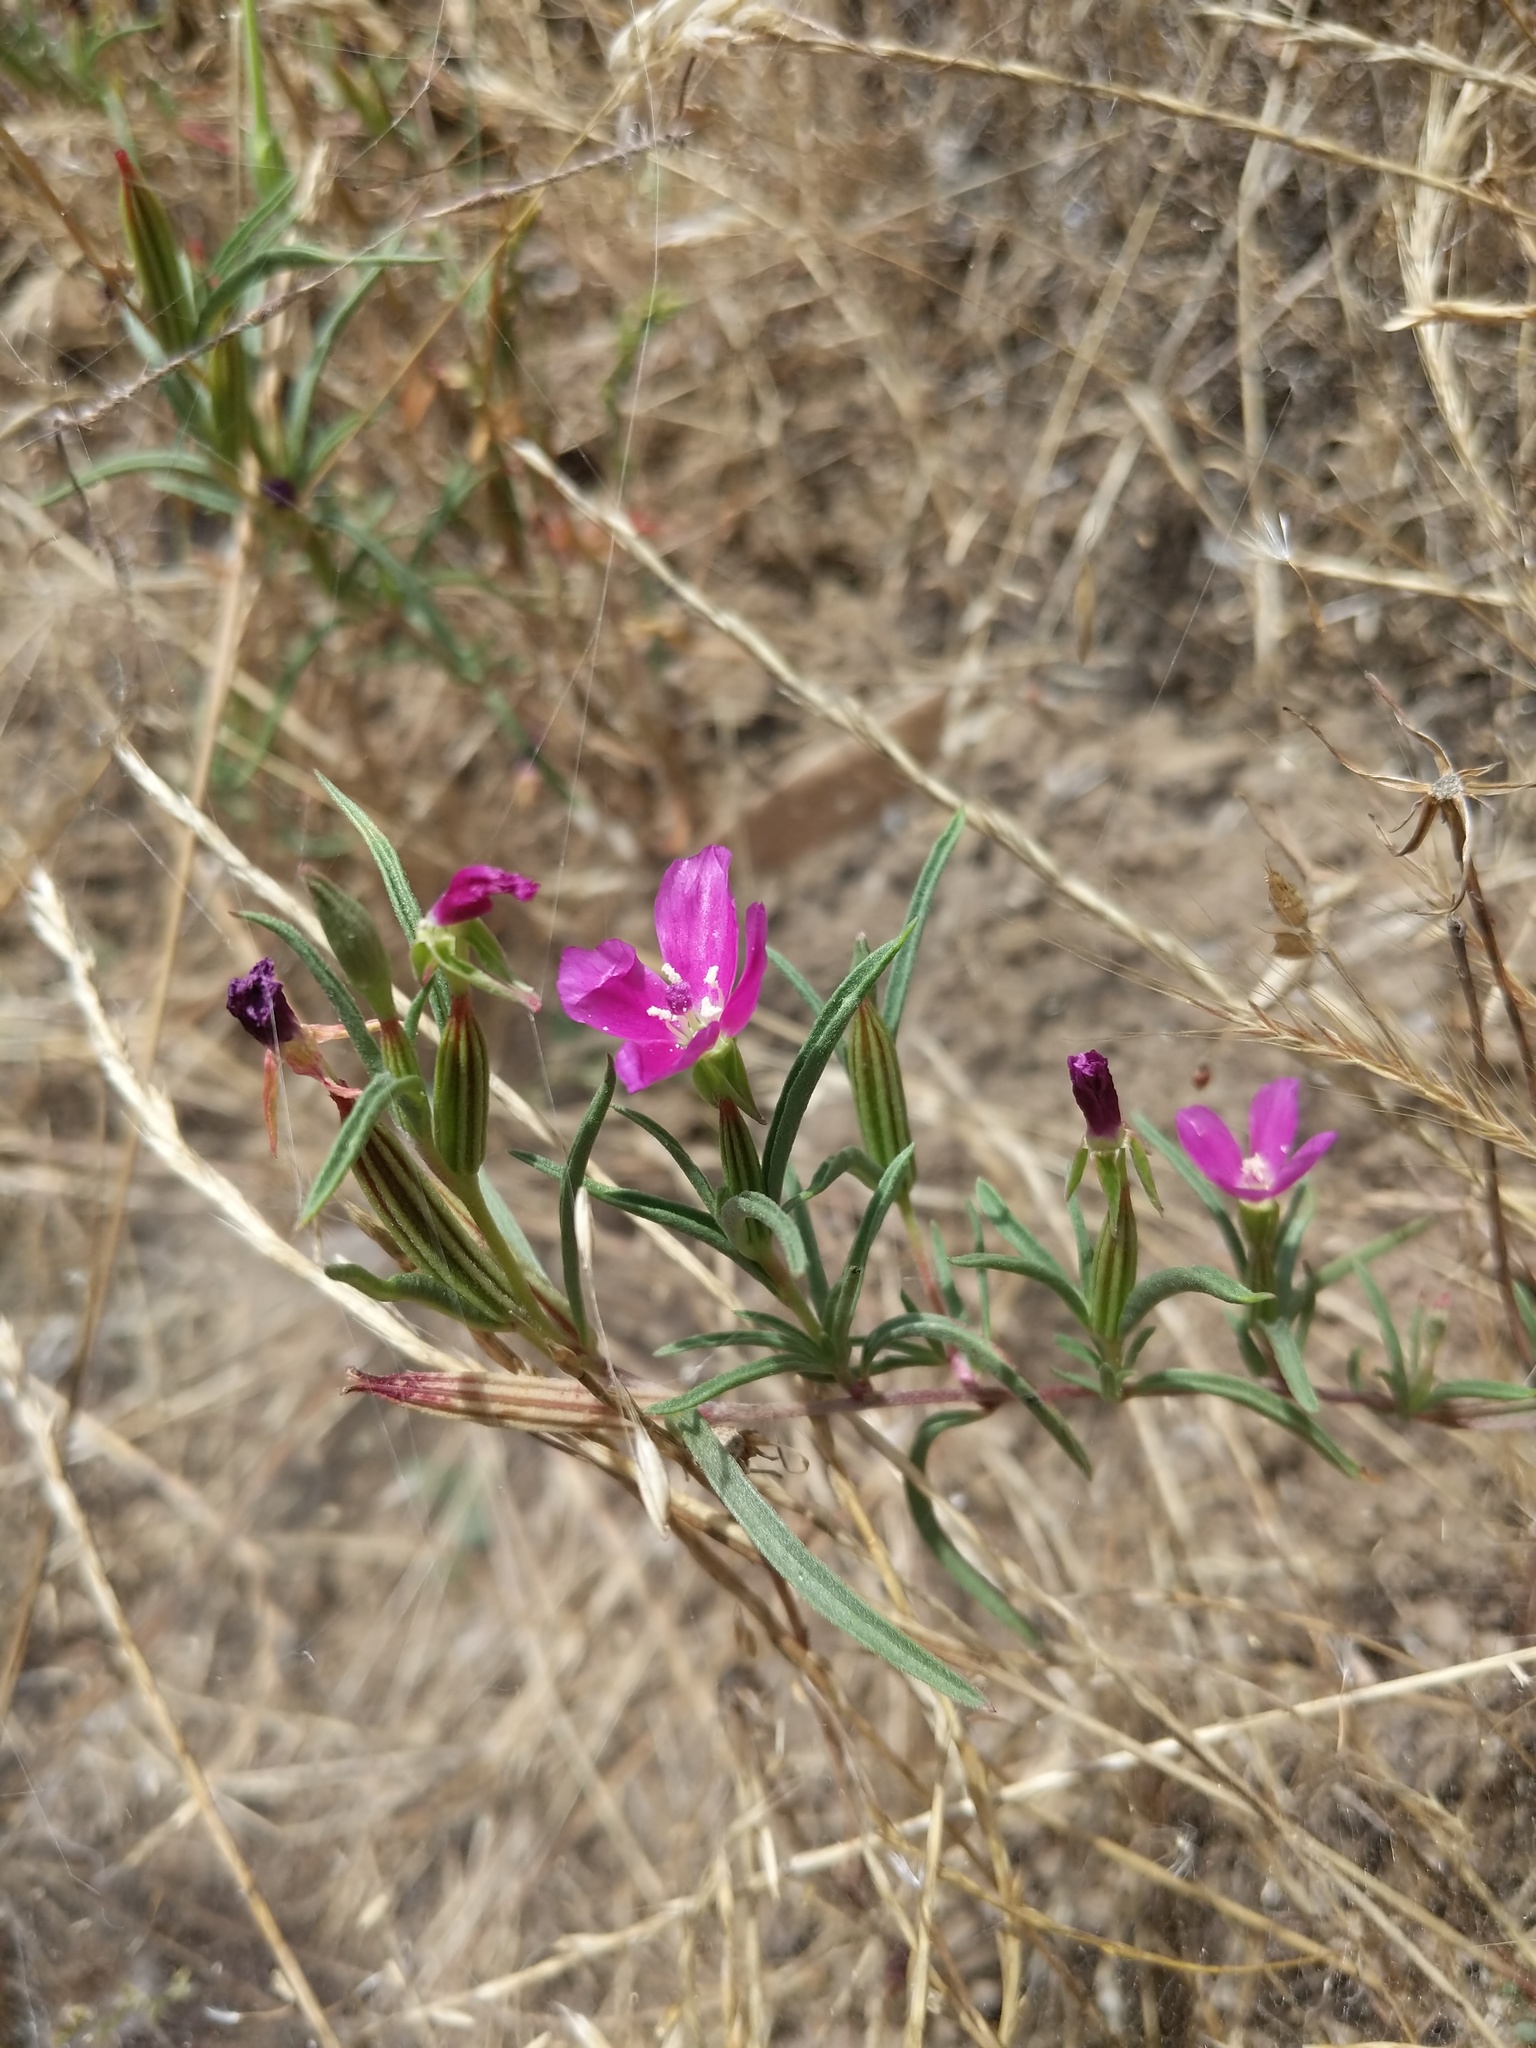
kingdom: Plantae
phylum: Tracheophyta
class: Magnoliopsida
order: Myrtales
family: Onagraceae
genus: Clarkia
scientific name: Clarkia purpurea
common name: Purple clarkia
